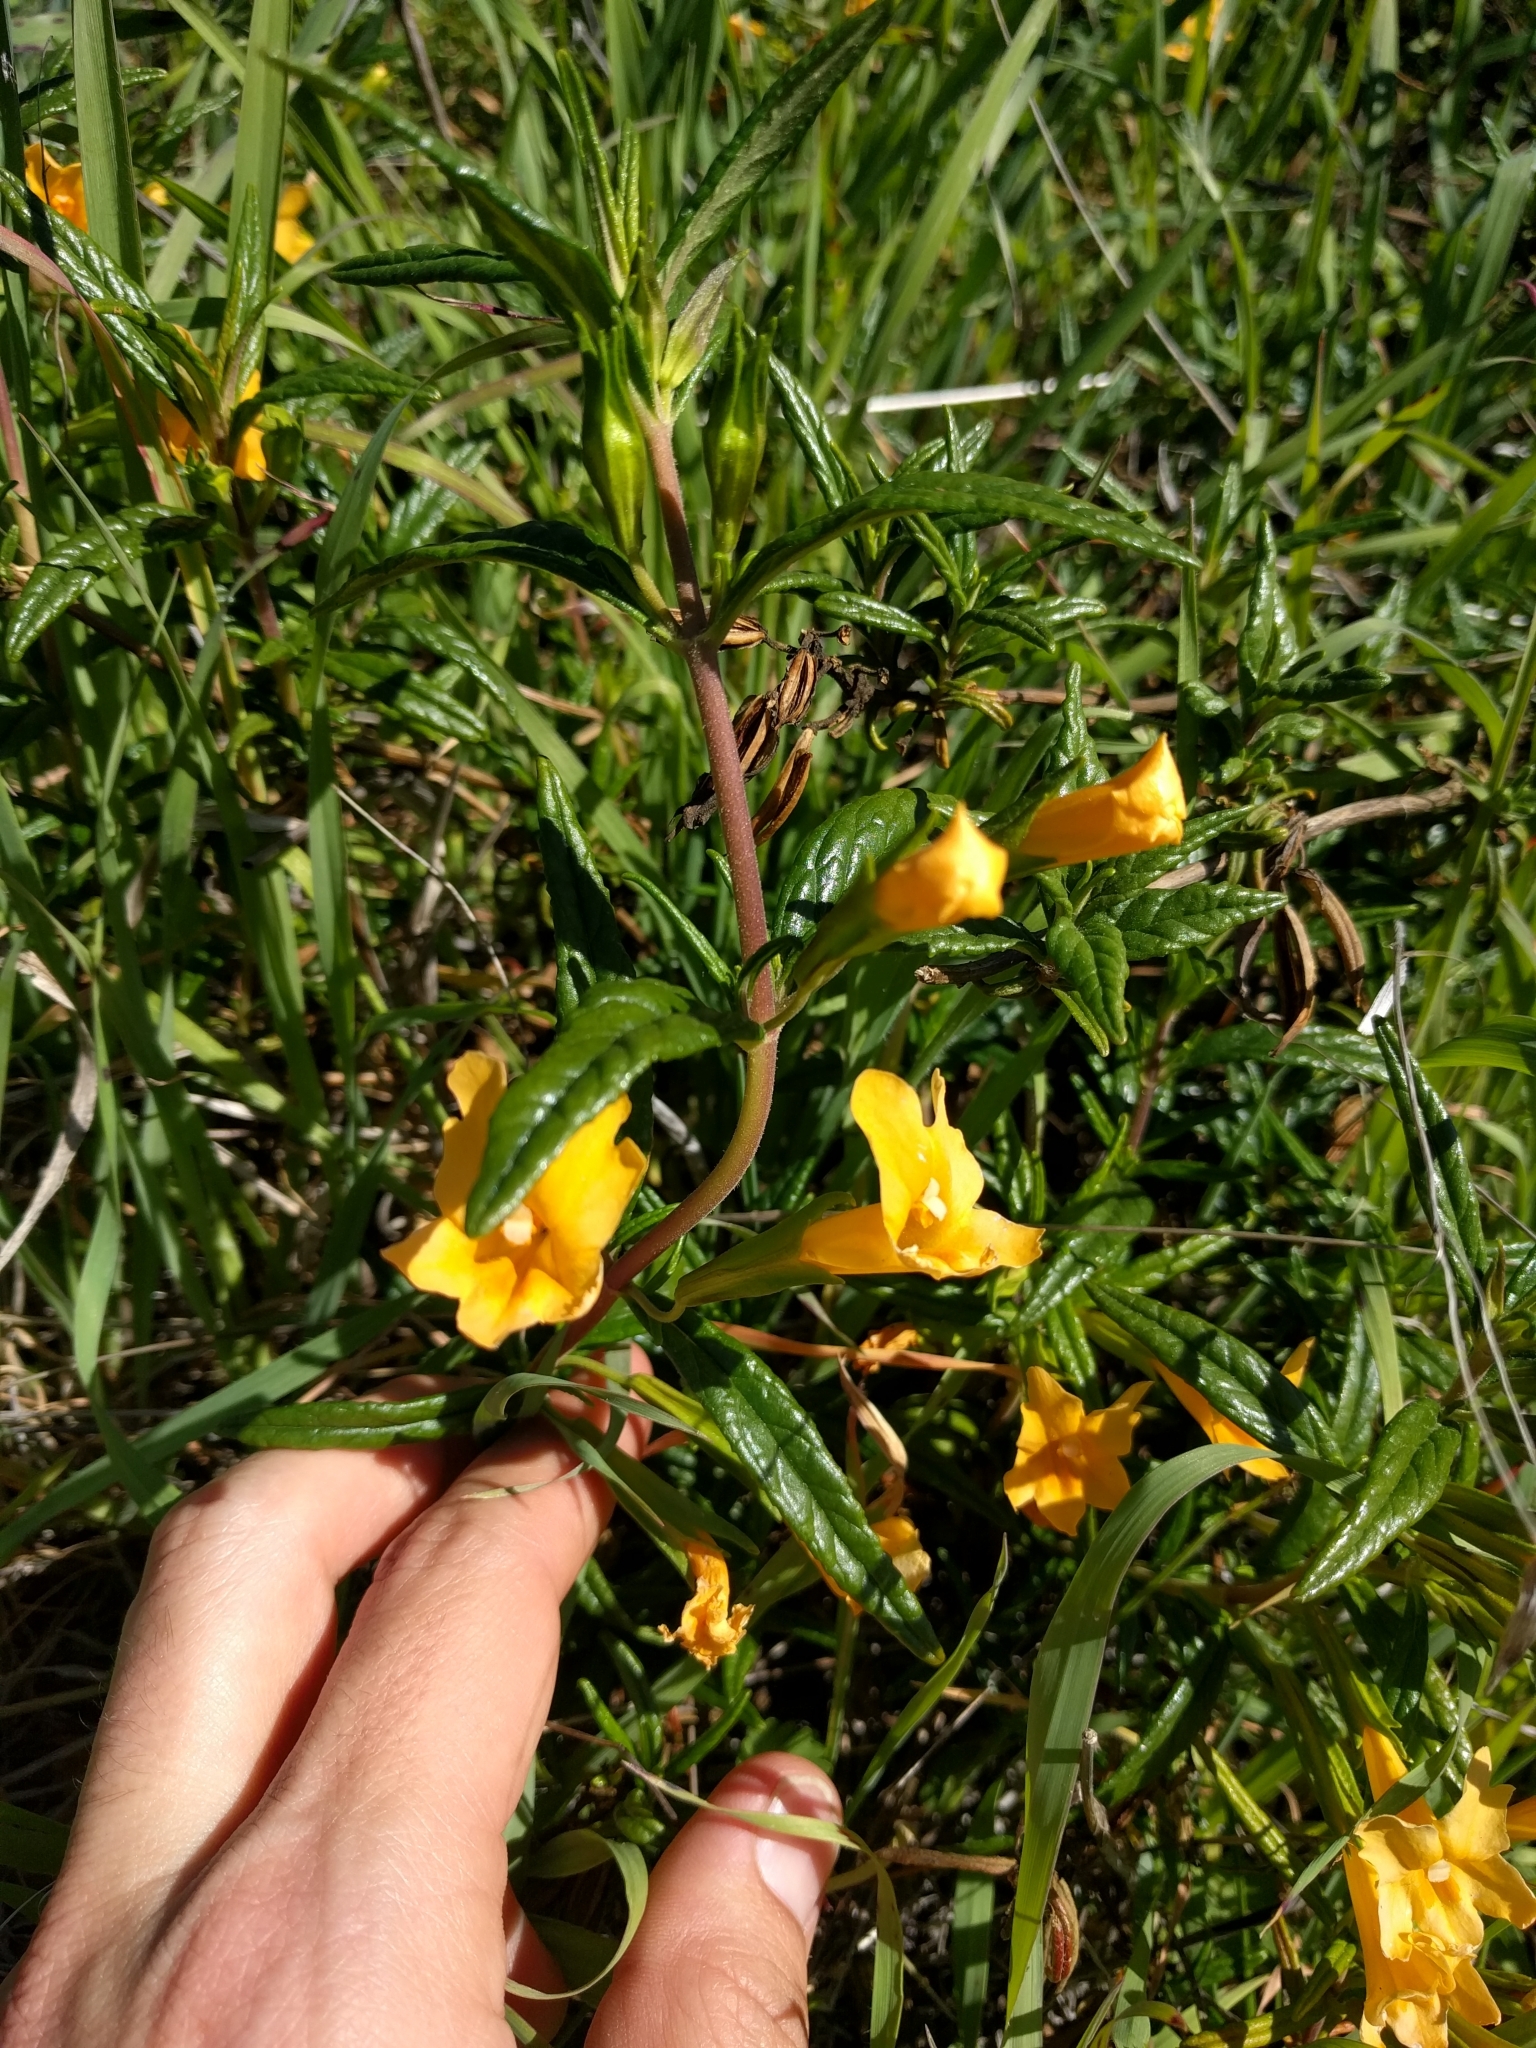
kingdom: Plantae
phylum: Tracheophyta
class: Magnoliopsida
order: Lamiales
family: Phrymaceae
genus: Diplacus
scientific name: Diplacus aurantiacus
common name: Bush monkey-flower
